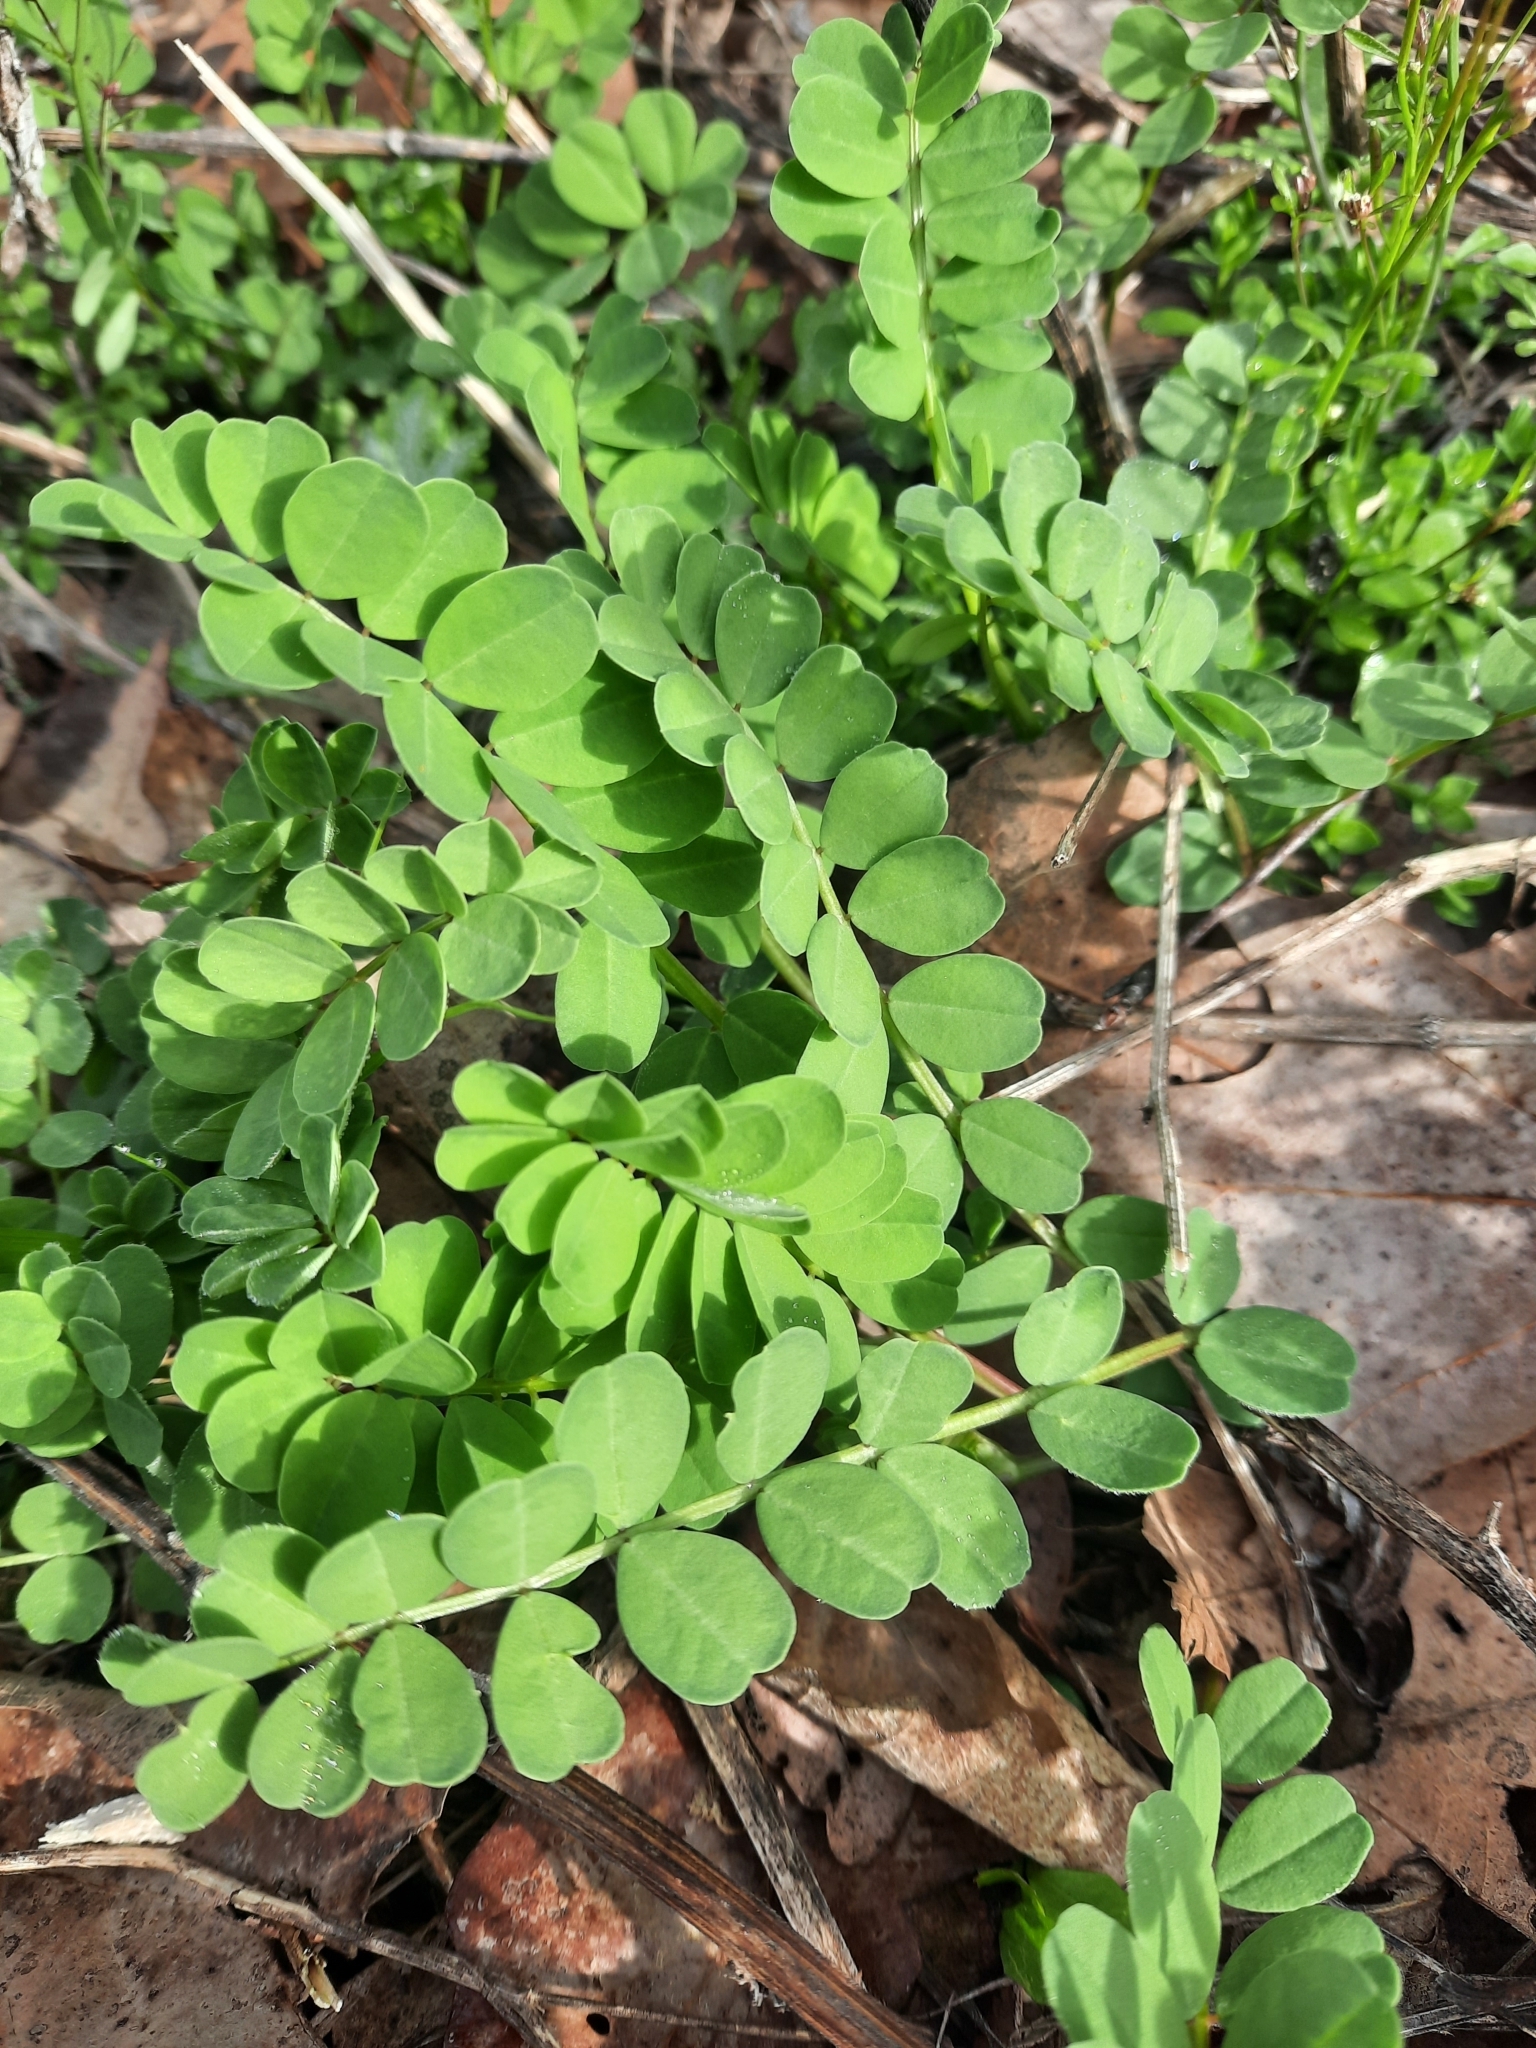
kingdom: Plantae
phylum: Tracheophyta
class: Magnoliopsida
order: Fabales
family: Fabaceae
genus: Coronilla
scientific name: Coronilla varia
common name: Crownvetch
